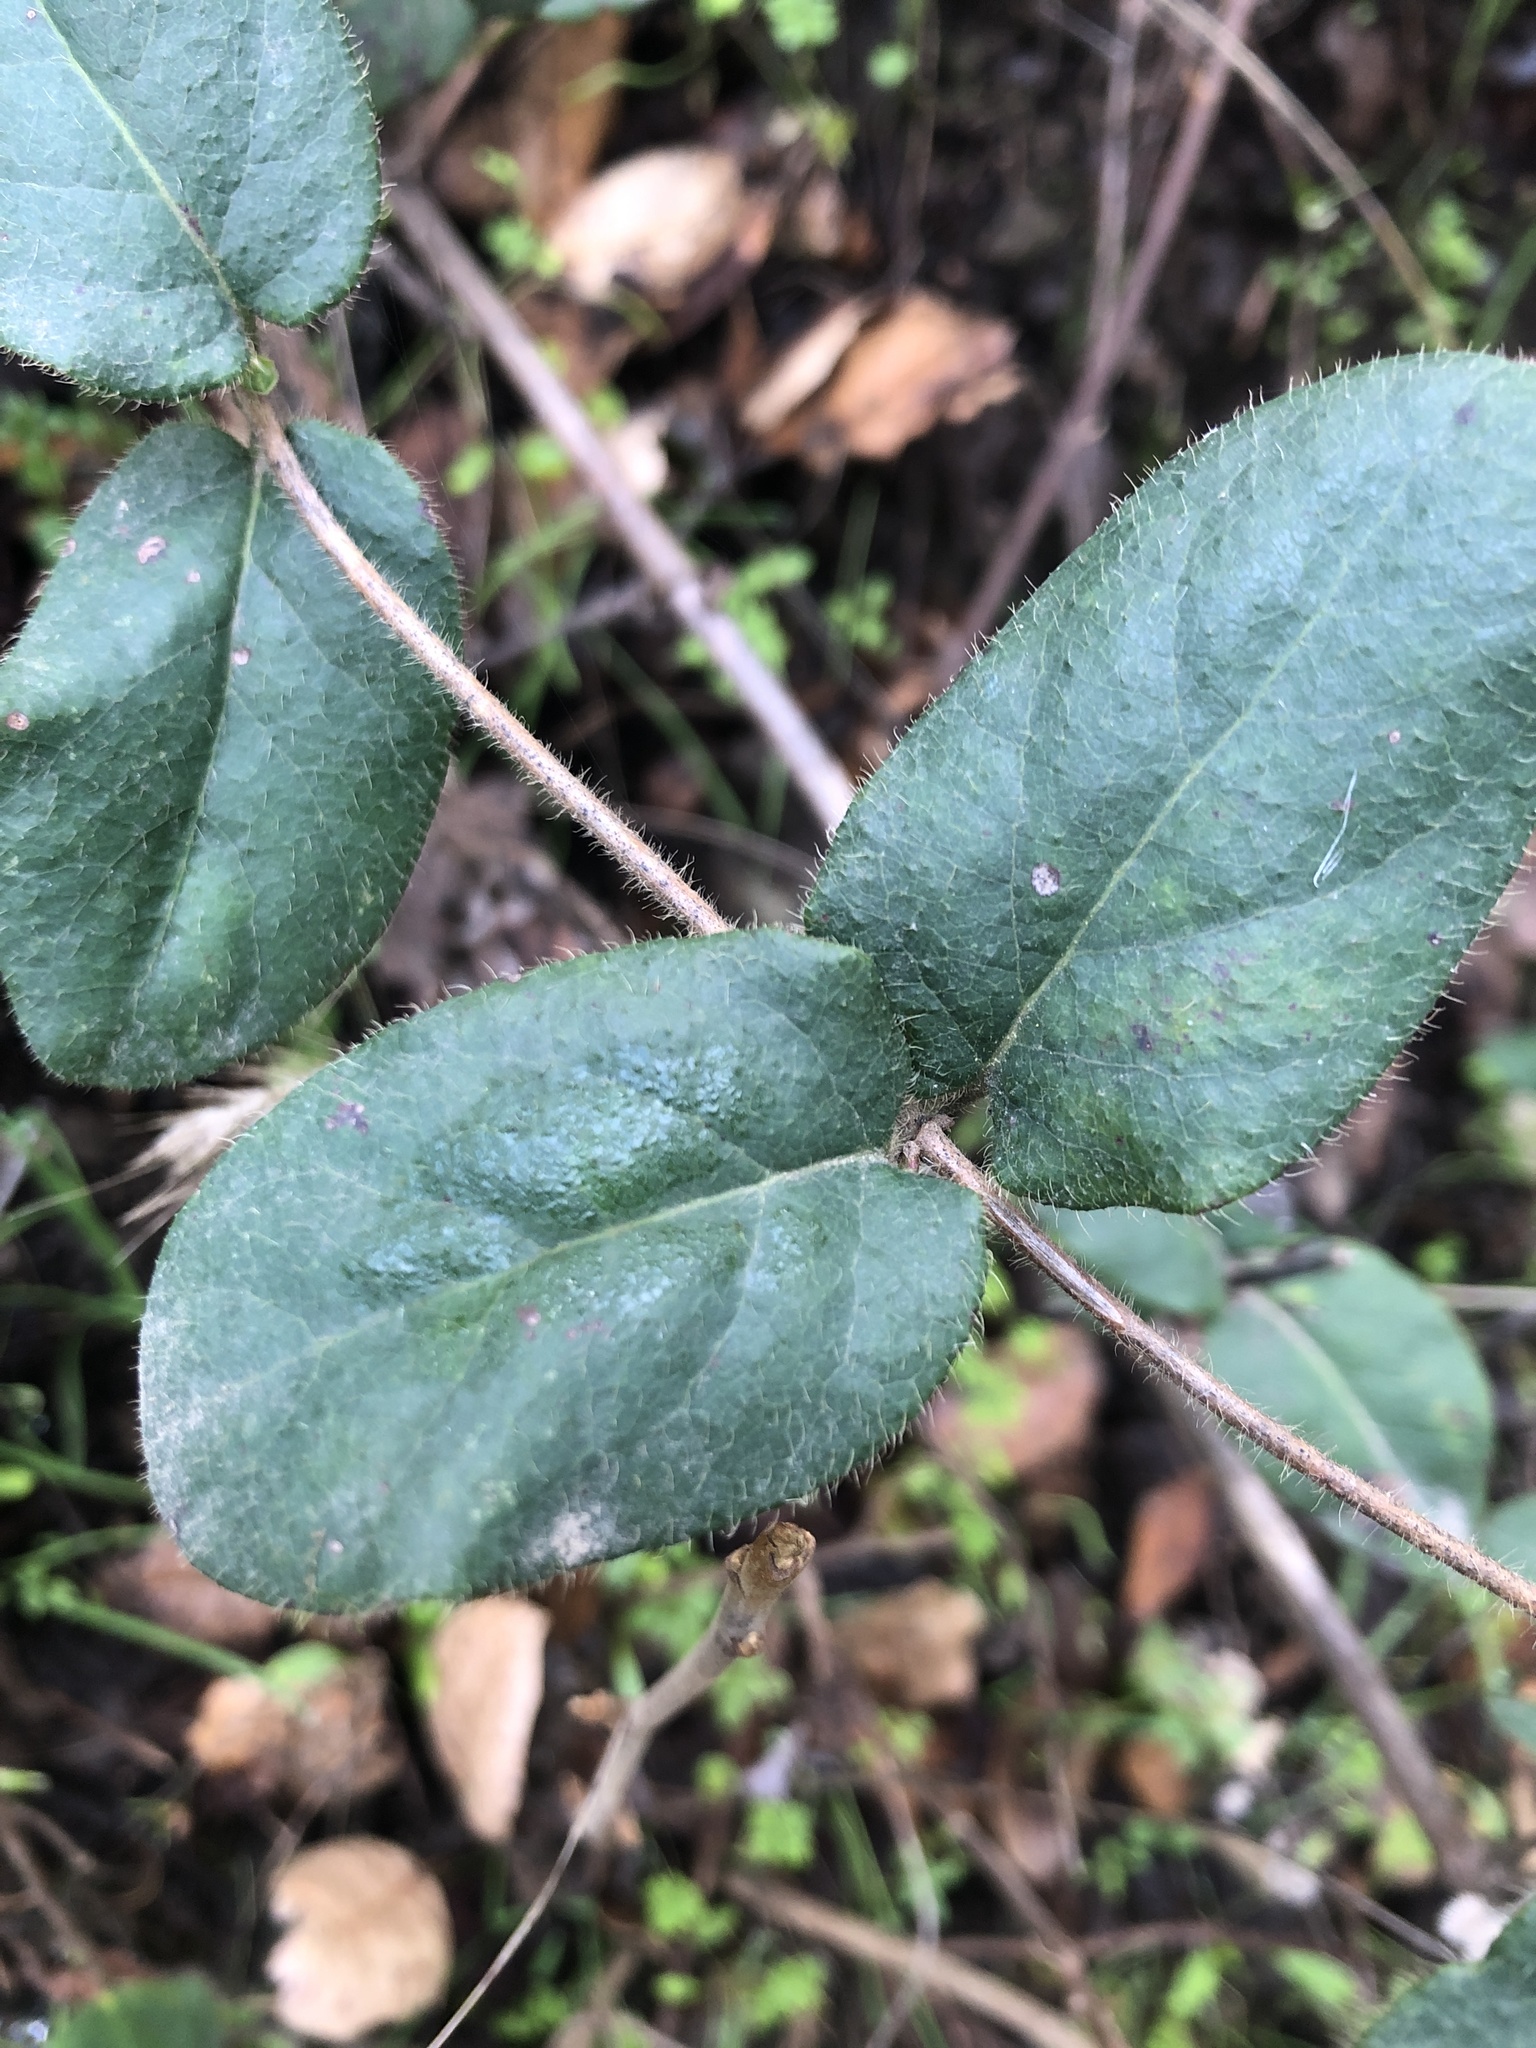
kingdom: Plantae
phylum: Tracheophyta
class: Magnoliopsida
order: Dipsacales
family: Caprifoliaceae
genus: Lonicera
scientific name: Lonicera hispidula
